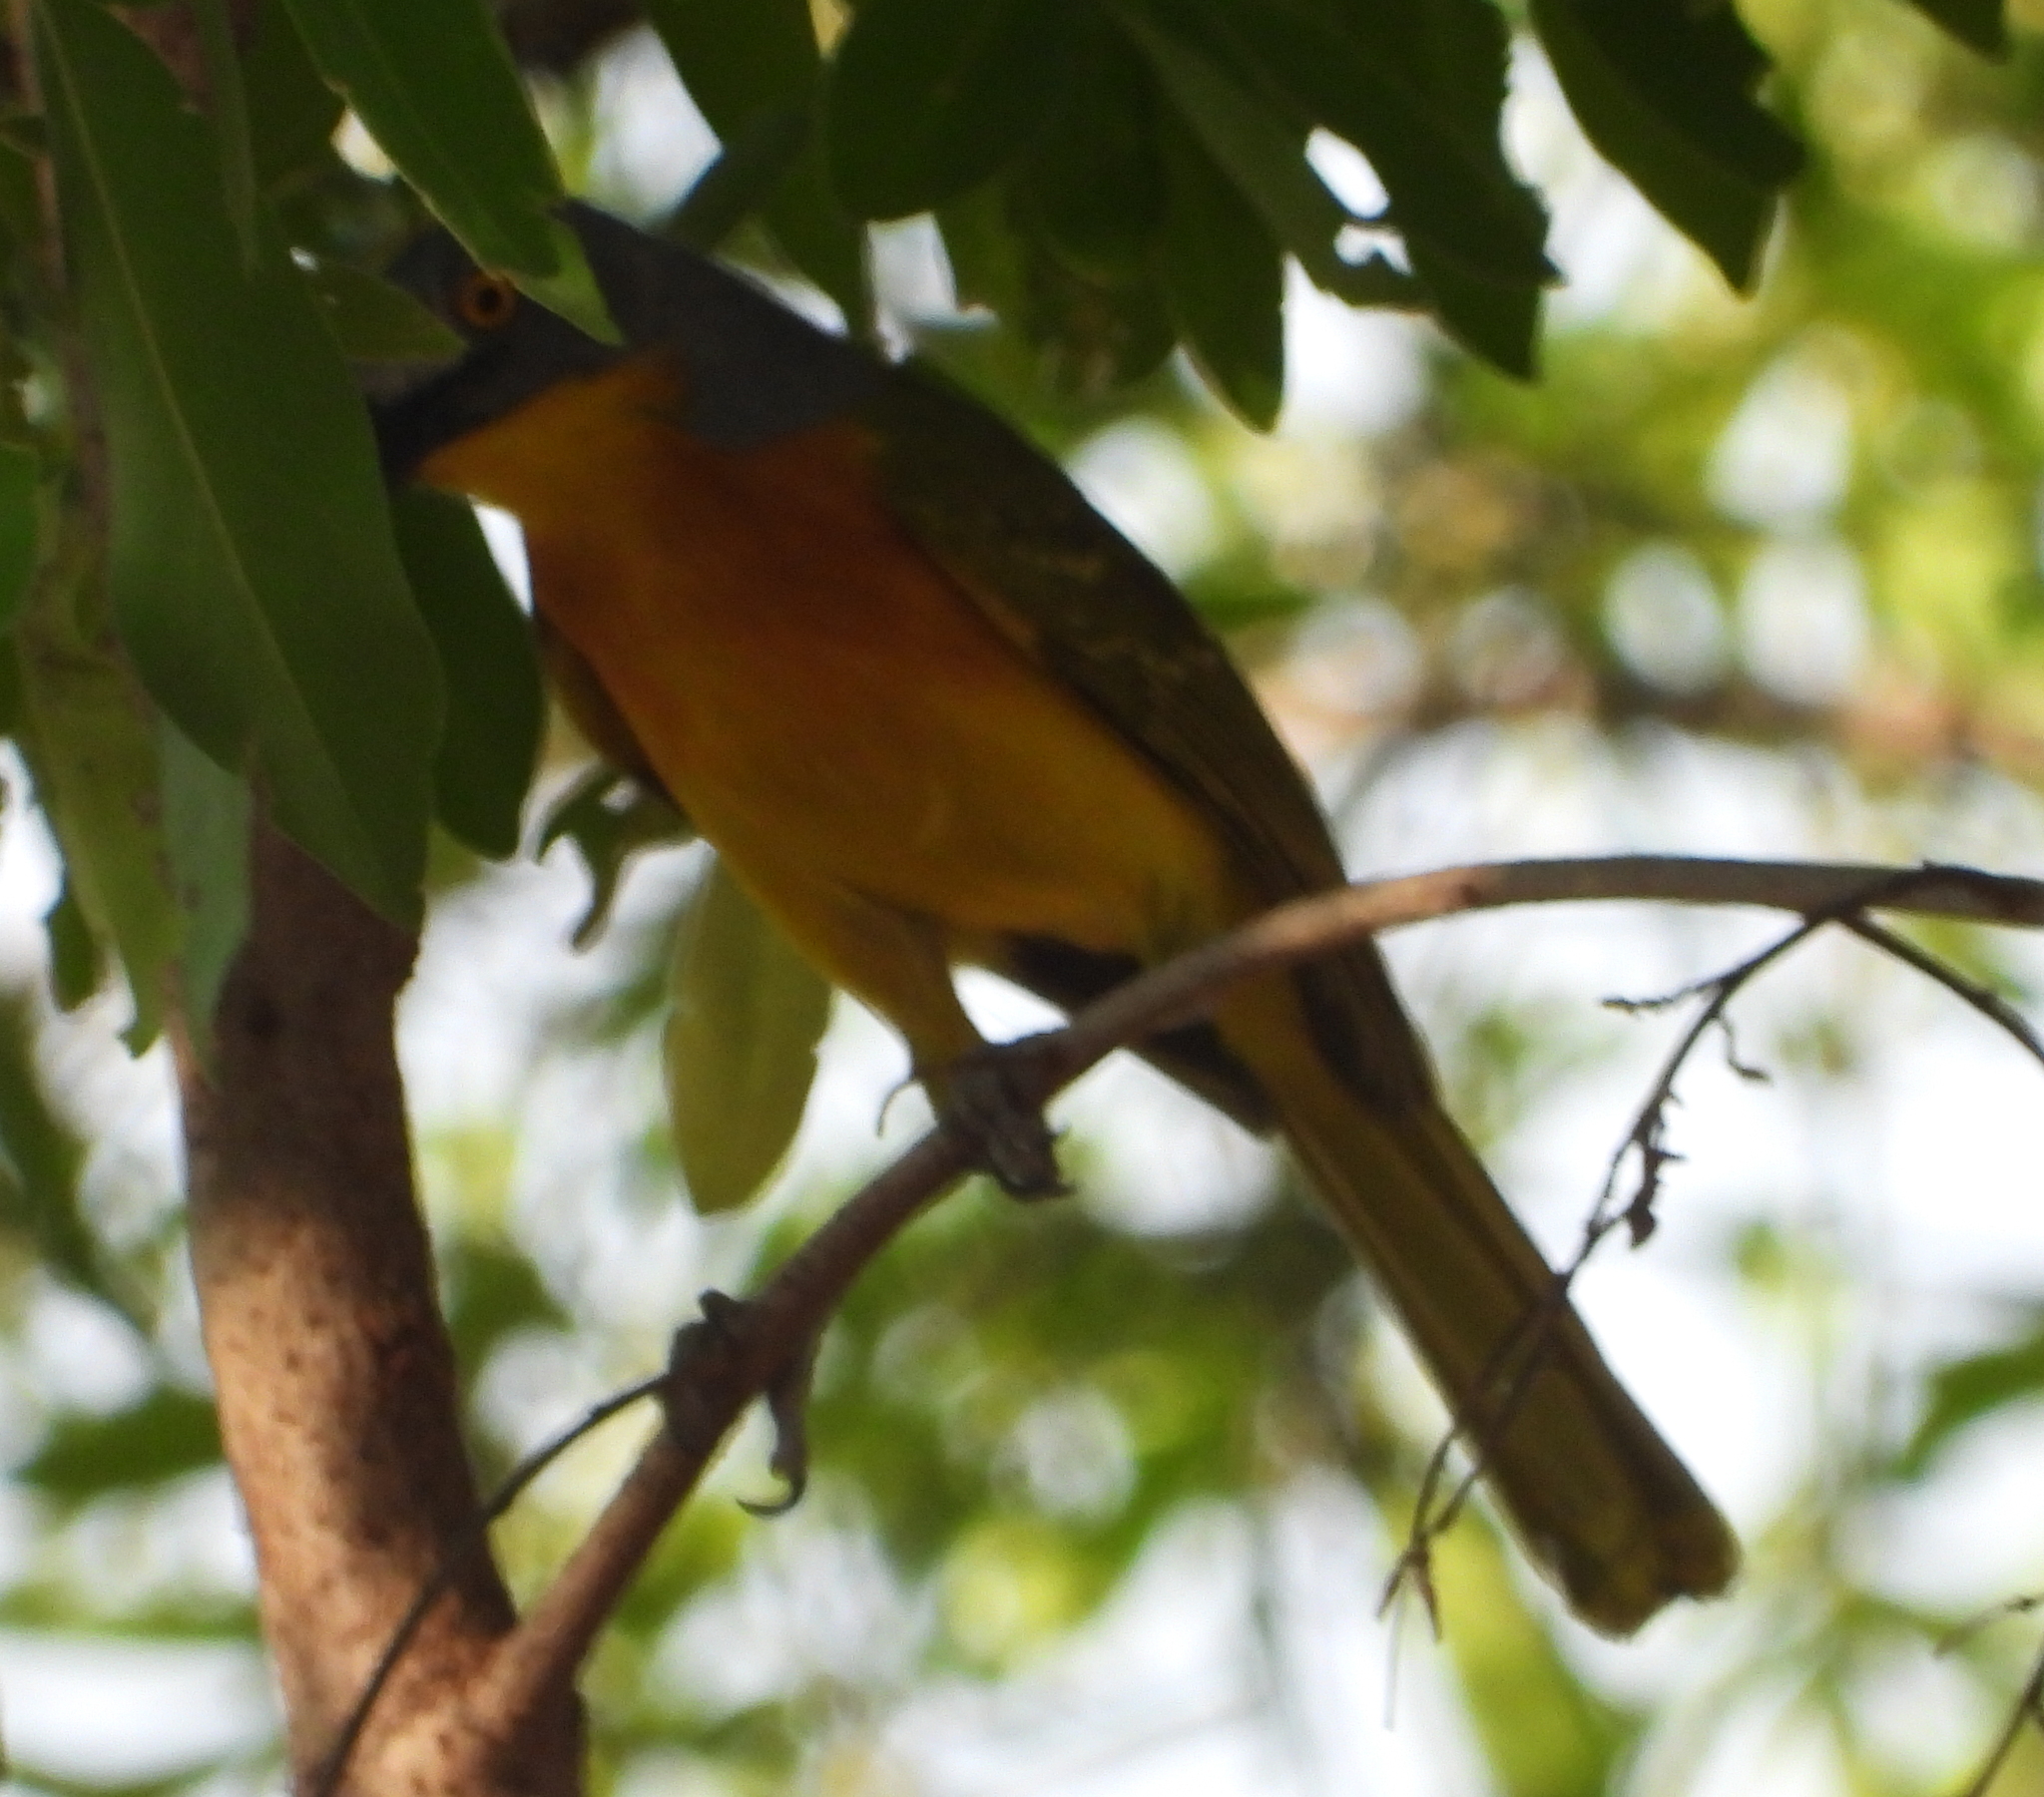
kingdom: Animalia
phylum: Chordata
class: Aves
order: Passeriformes
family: Malaconotidae
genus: Malaconotus
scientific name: Malaconotus blanchoti
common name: Grey-headed bushshrike
